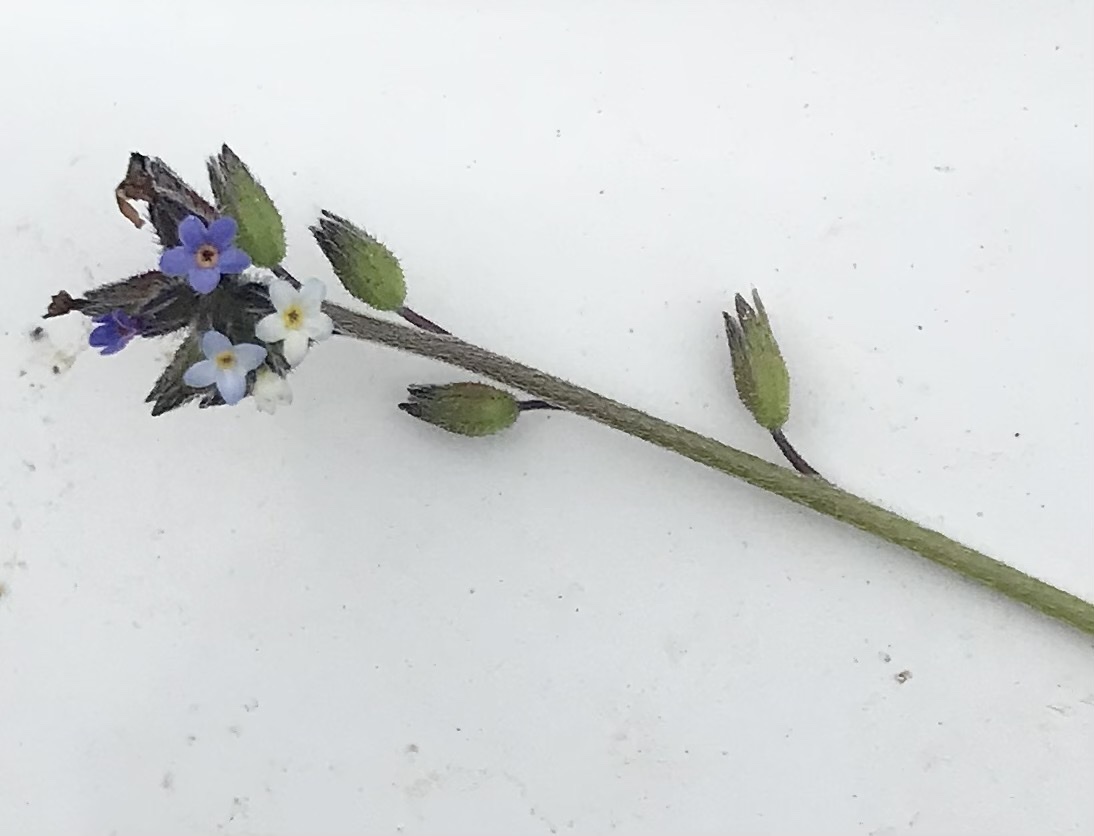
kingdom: Plantae
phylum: Tracheophyta
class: Magnoliopsida
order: Boraginales
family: Boraginaceae
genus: Myosotis
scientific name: Myosotis discolor
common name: Changing forget-me-not
